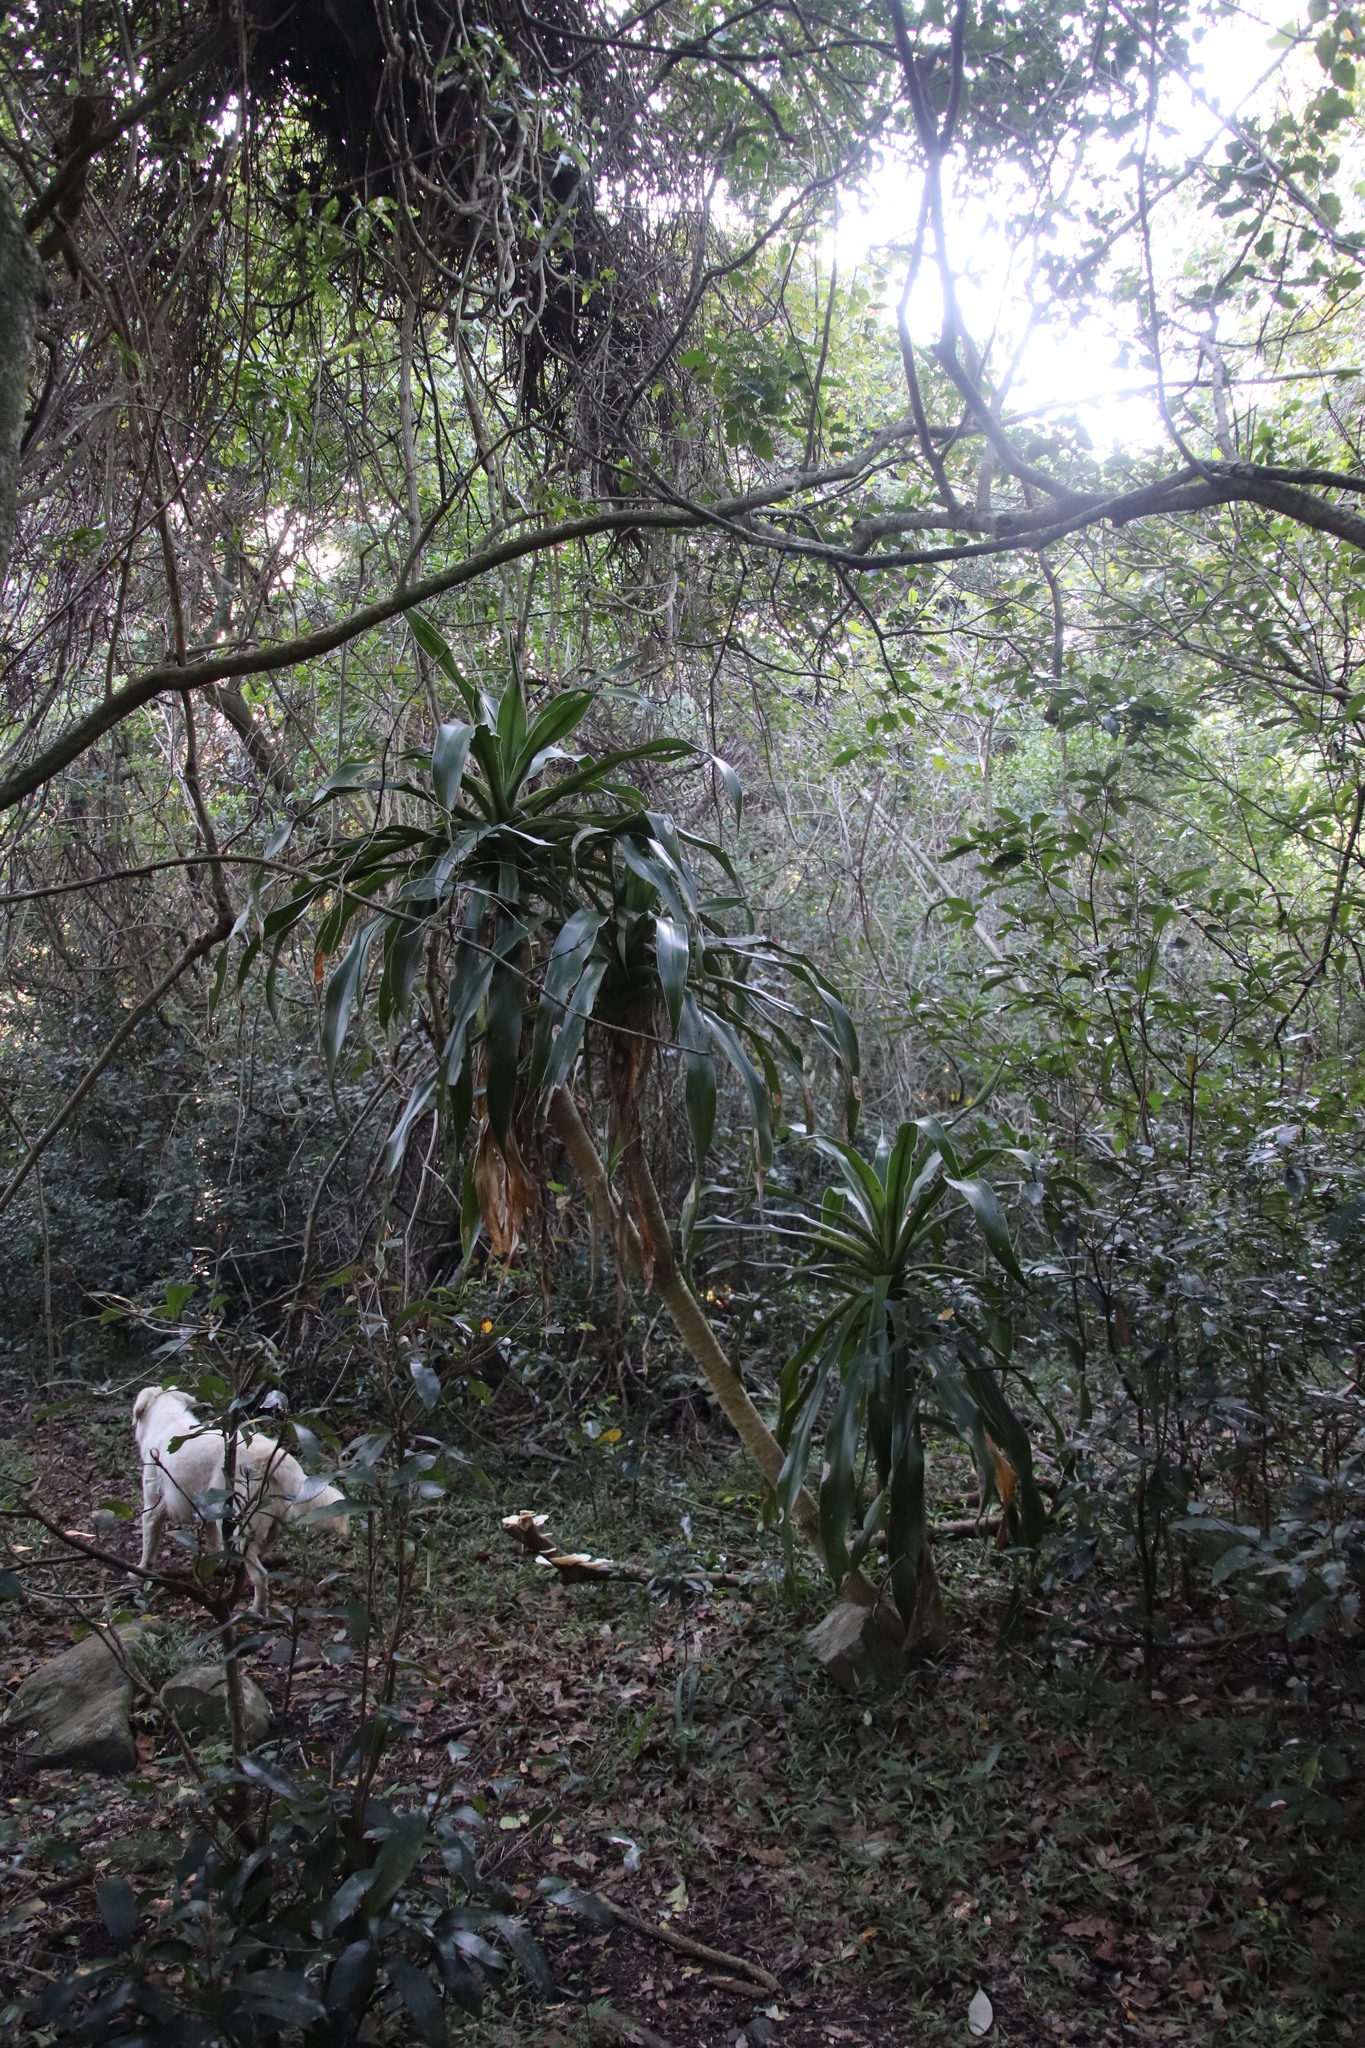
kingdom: Plantae
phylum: Tracheophyta
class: Liliopsida
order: Asparagales
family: Asparagaceae
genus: Dracaena
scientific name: Dracaena aletriformis
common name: Large-leaved dragon tree
